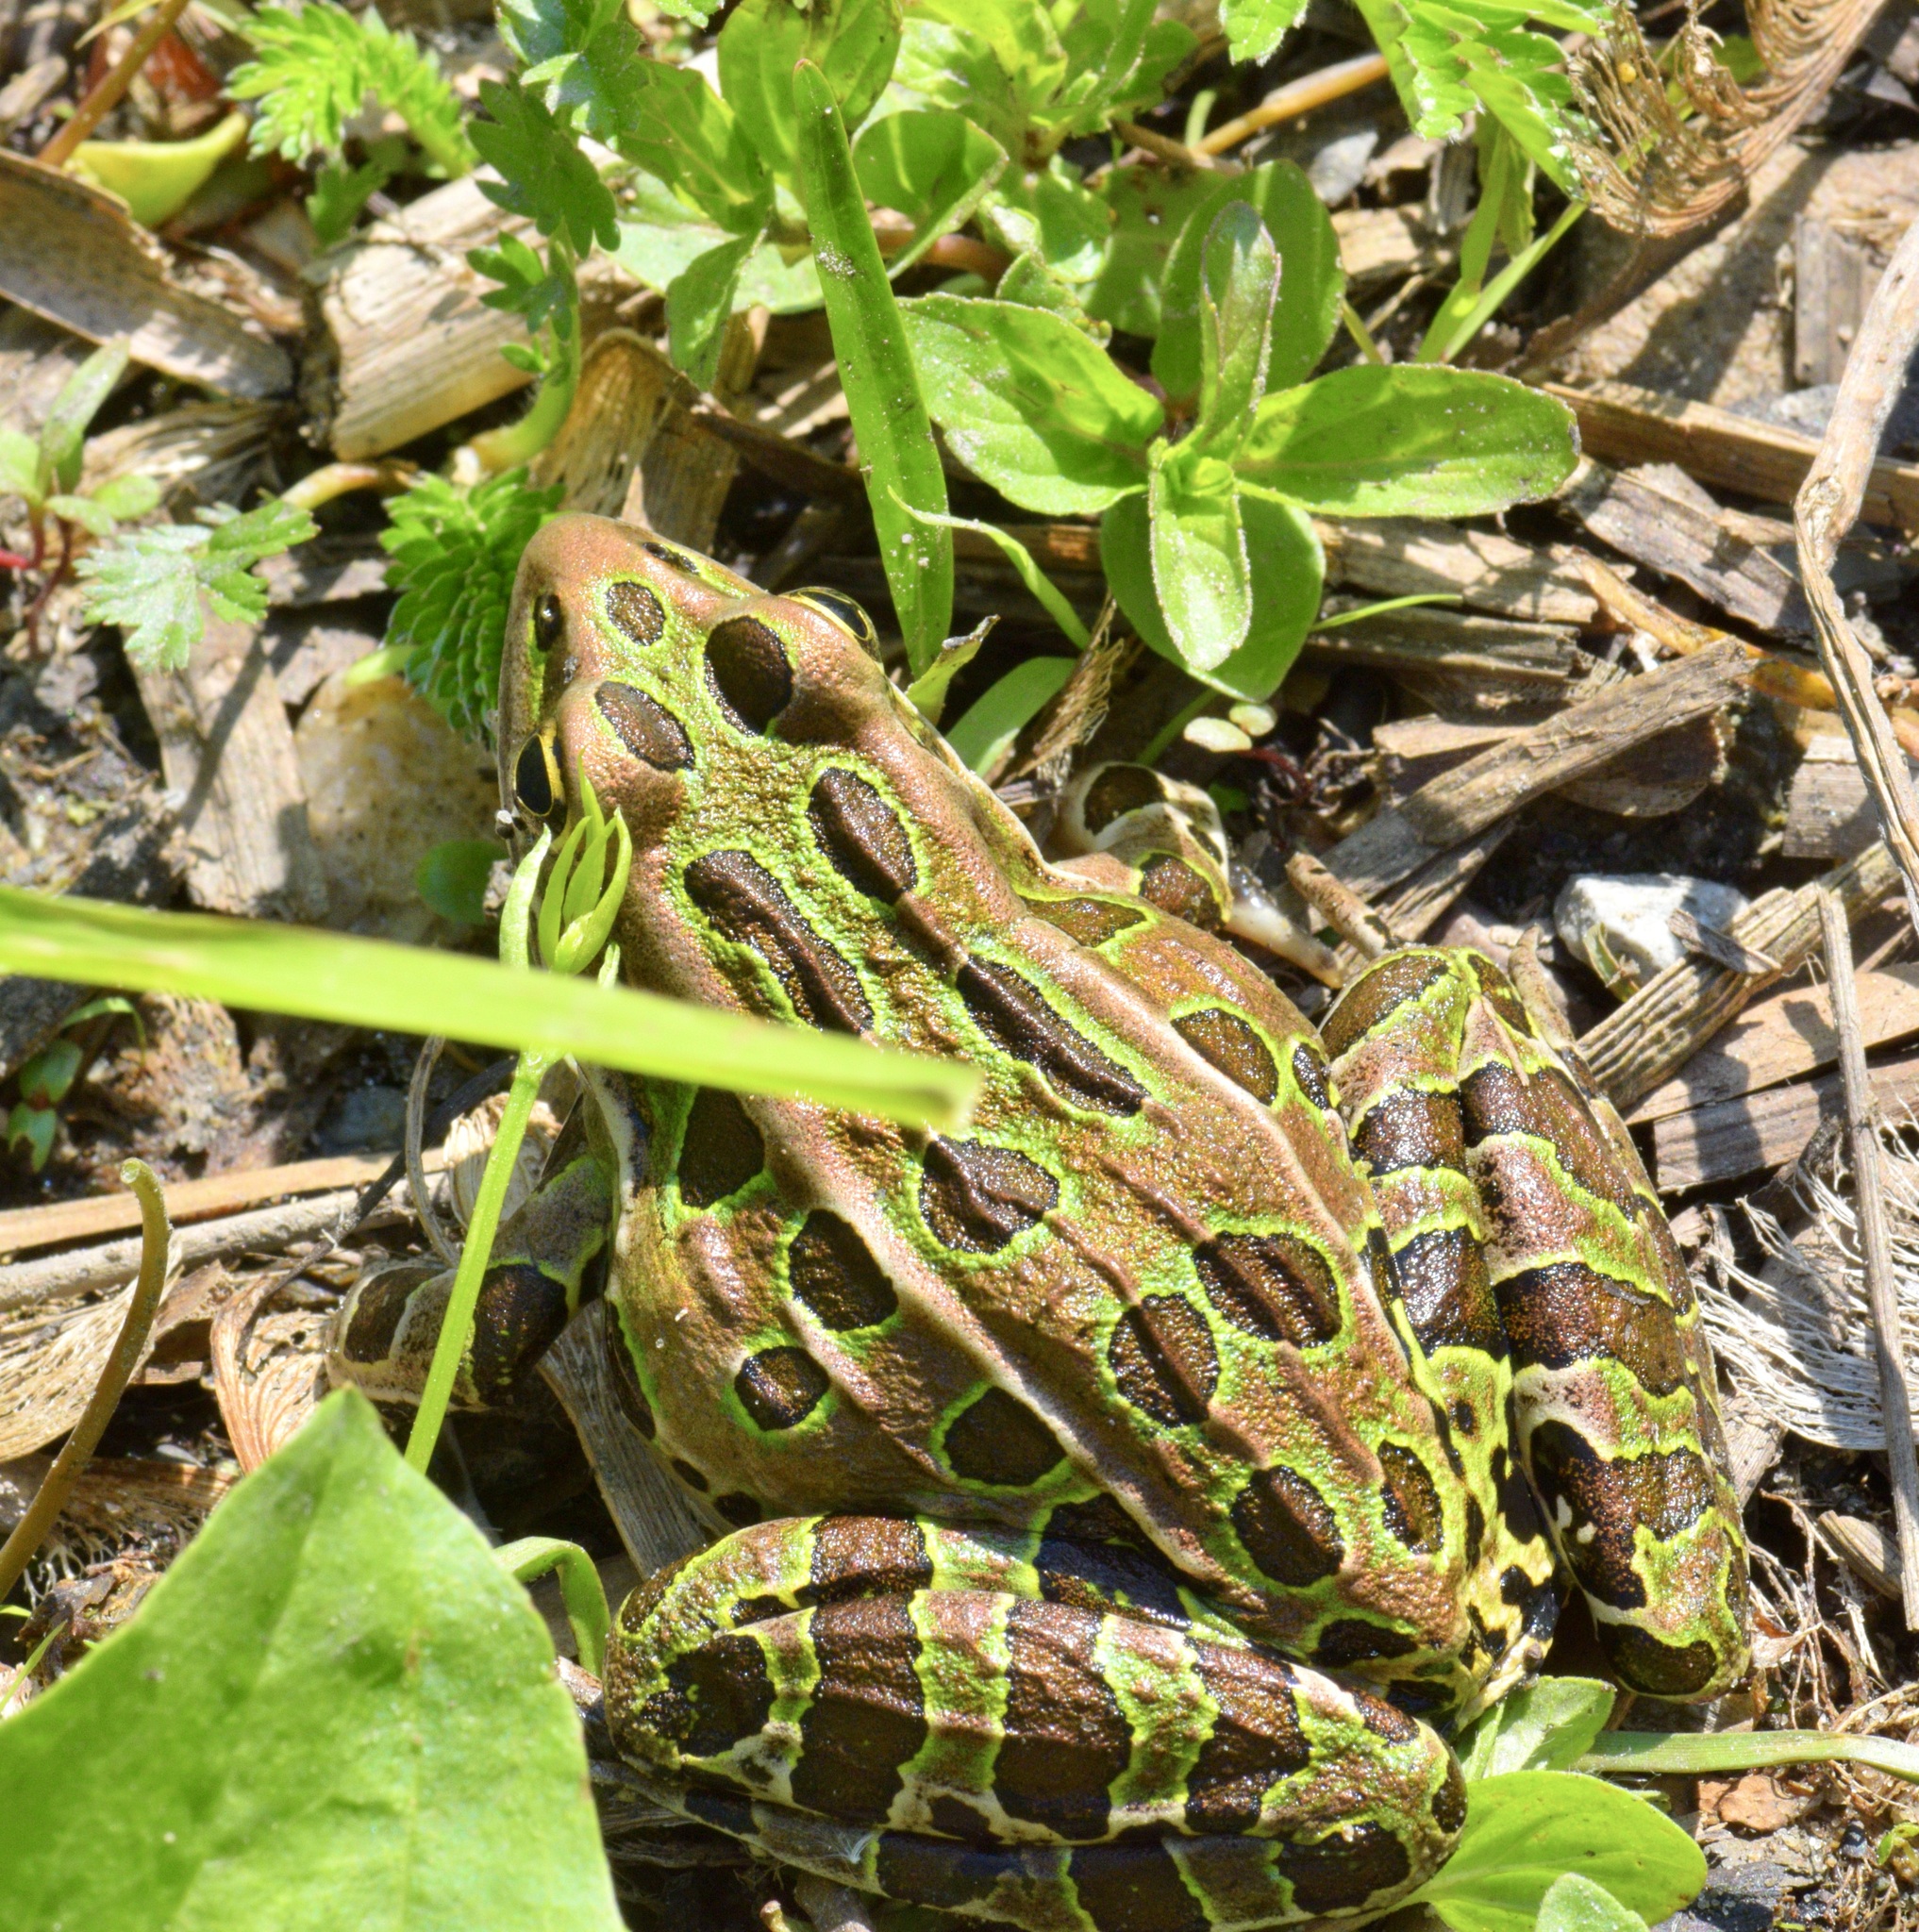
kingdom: Animalia
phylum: Chordata
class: Amphibia
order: Anura
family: Ranidae
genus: Lithobates
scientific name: Lithobates pipiens
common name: Northern leopard frog
